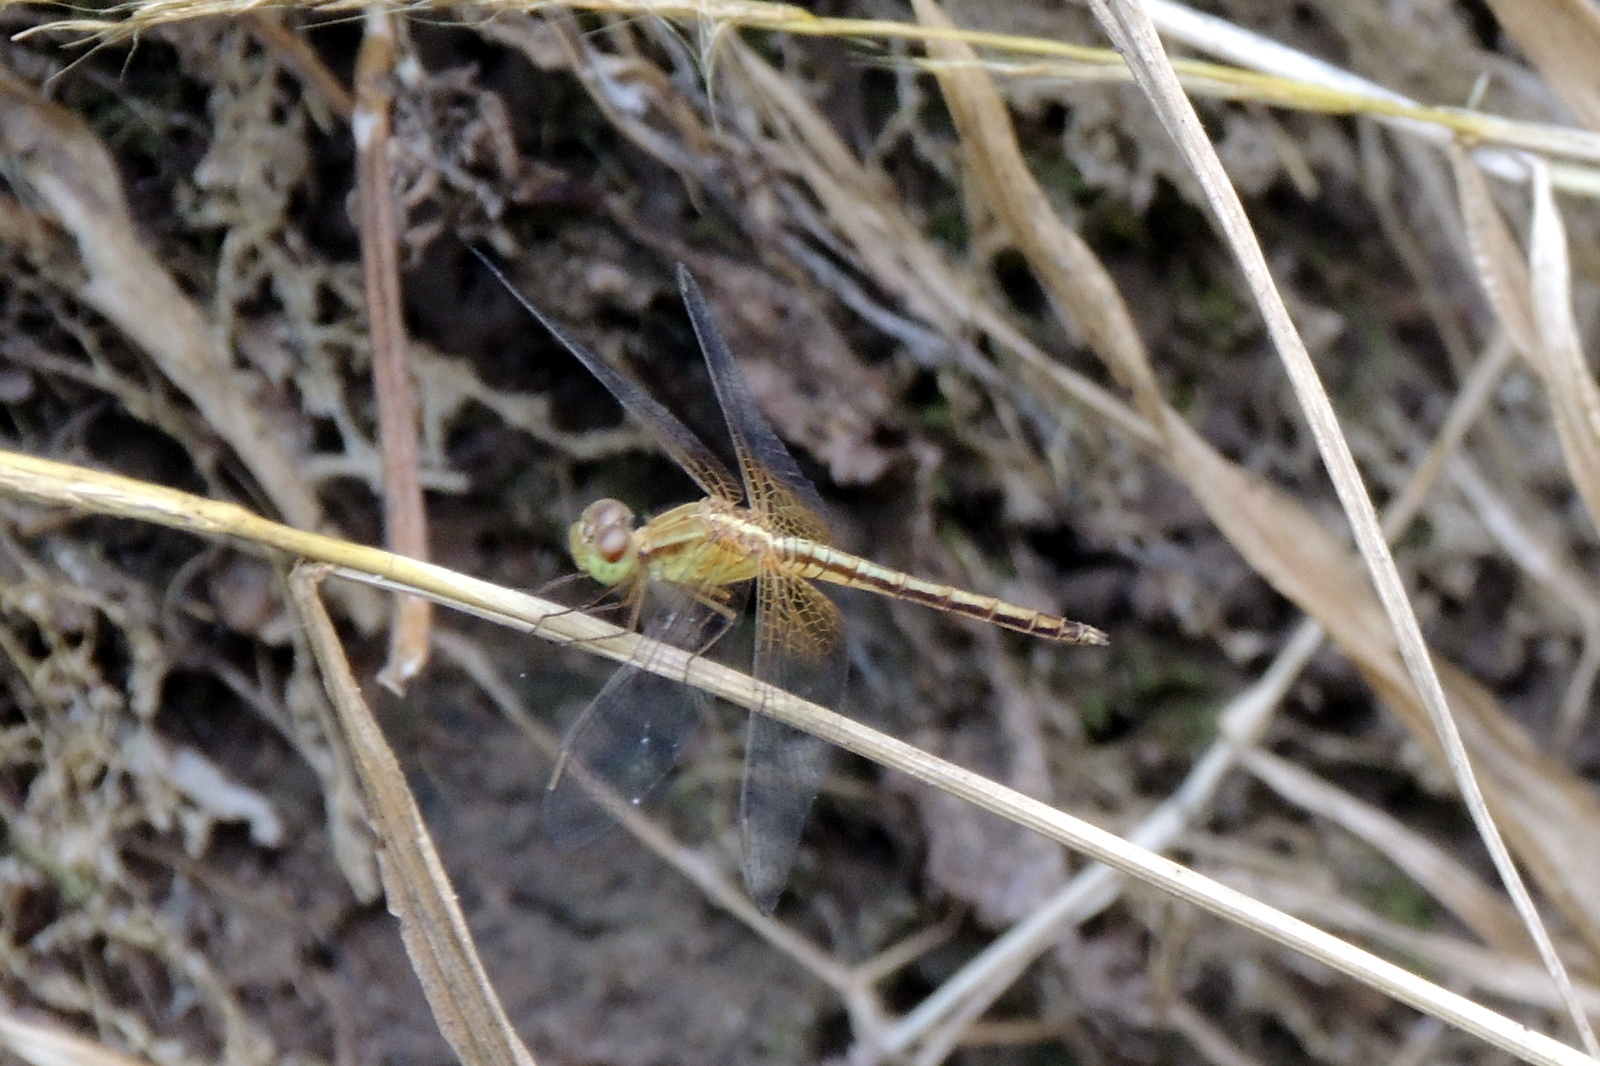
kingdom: Animalia
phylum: Arthropoda
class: Insecta
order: Odonata
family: Libellulidae
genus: Neurothemis
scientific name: Neurothemis intermedia
